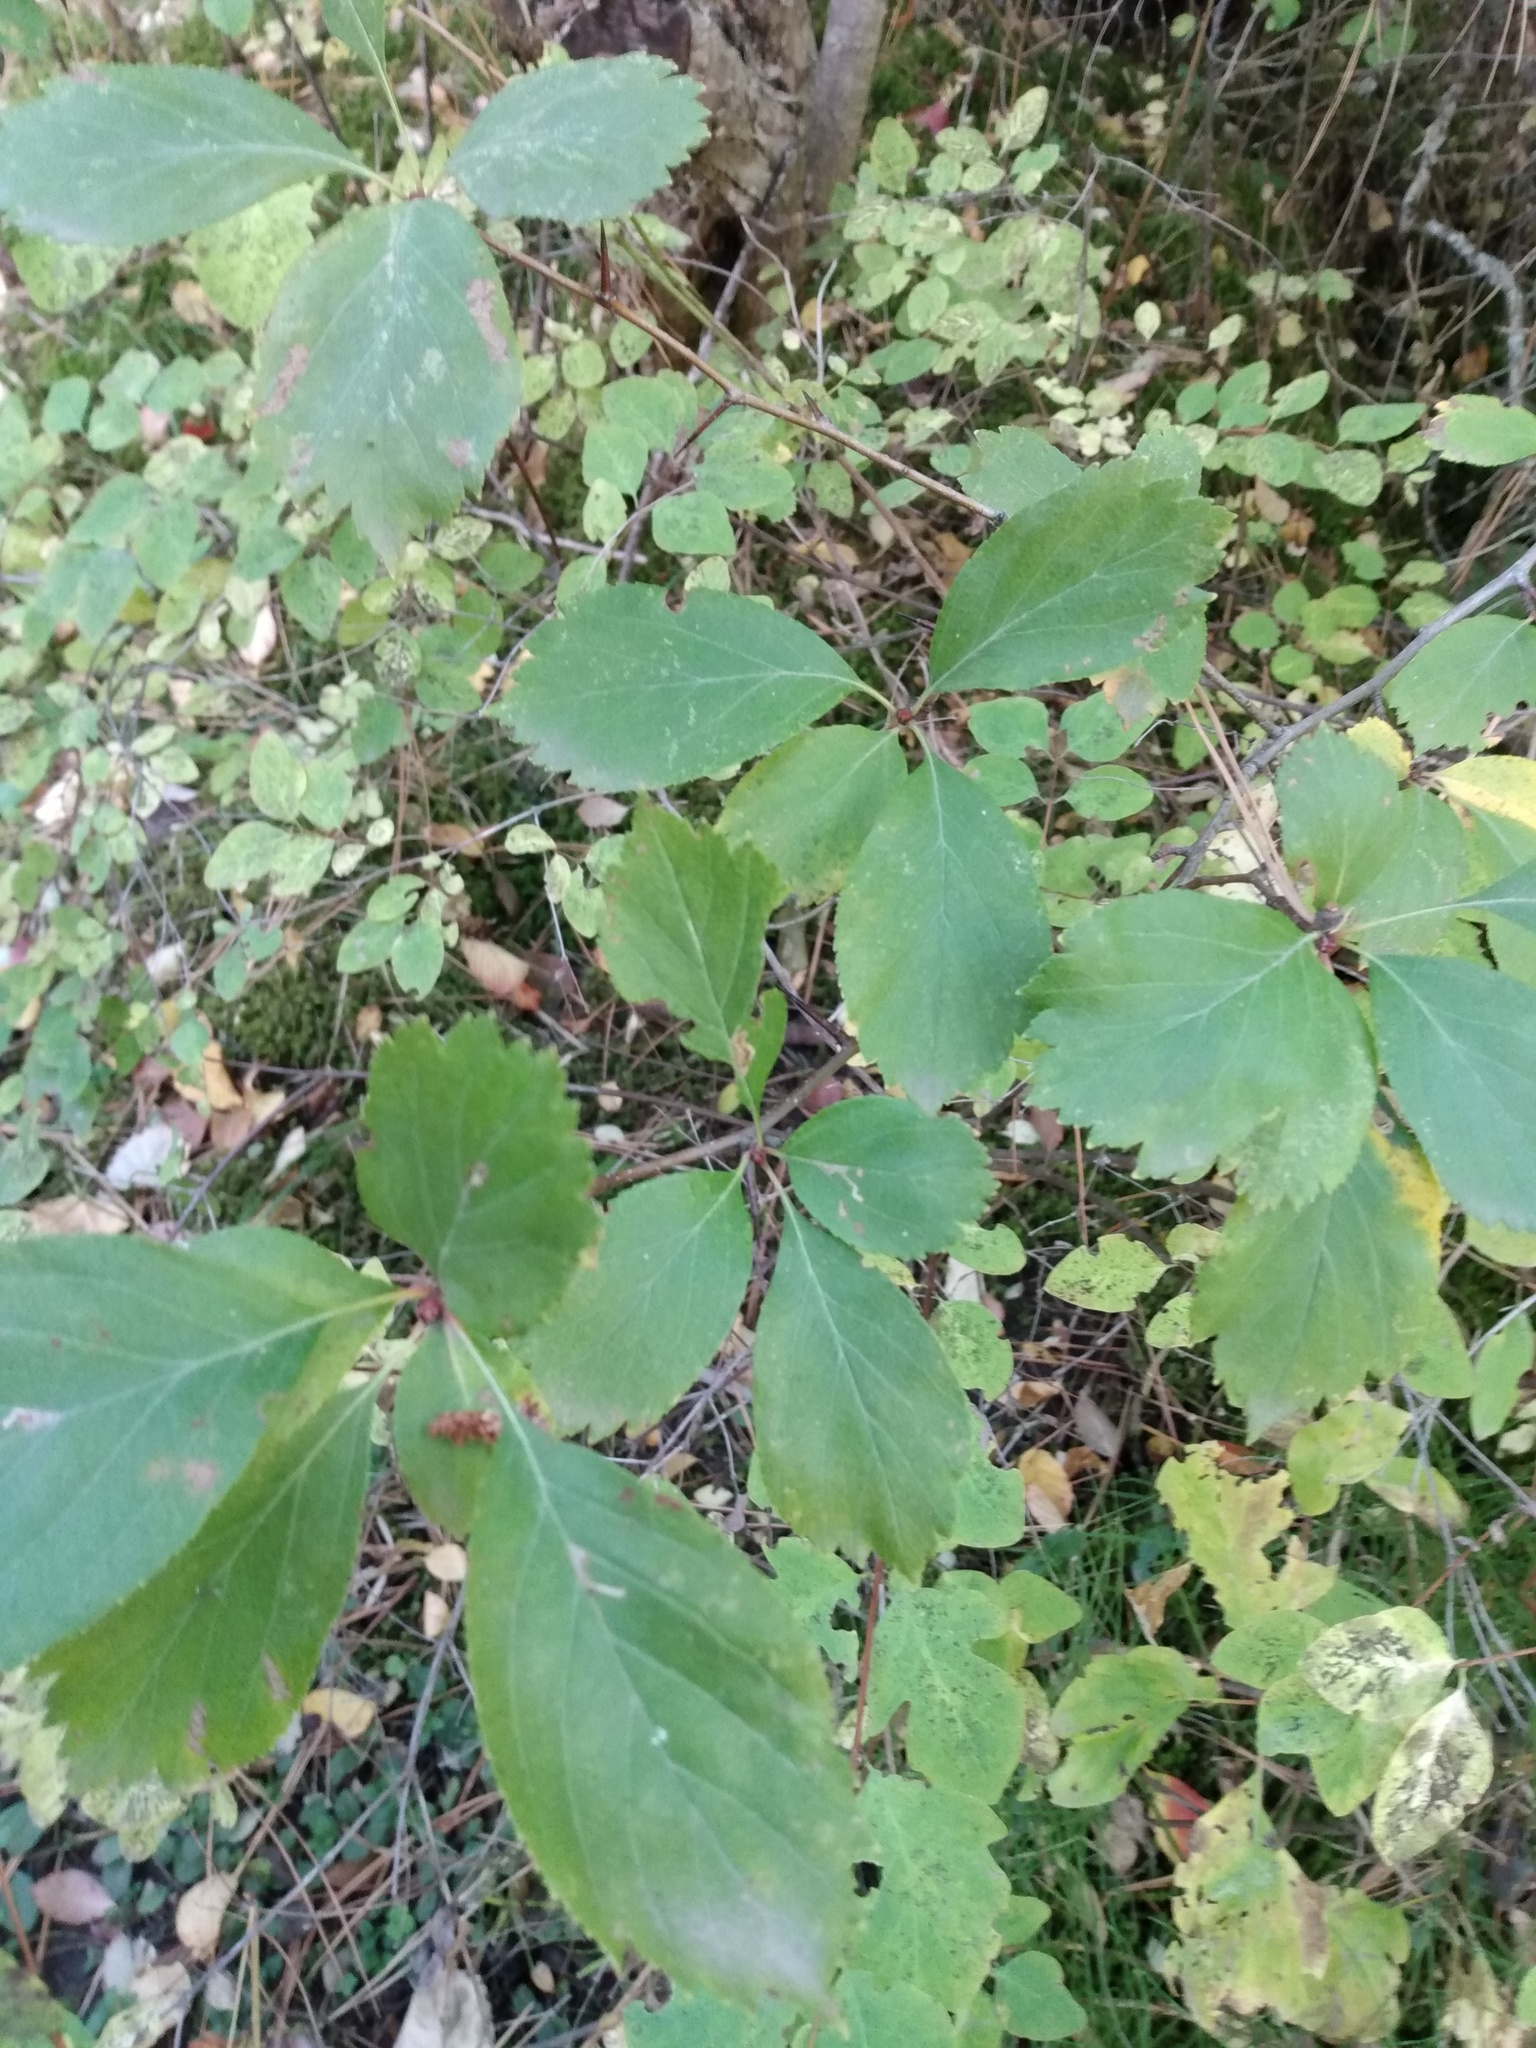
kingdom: Plantae
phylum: Tracheophyta
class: Magnoliopsida
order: Rosales
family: Rosaceae
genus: Crataegus
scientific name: Crataegus douglasii
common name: Black hawthorn
